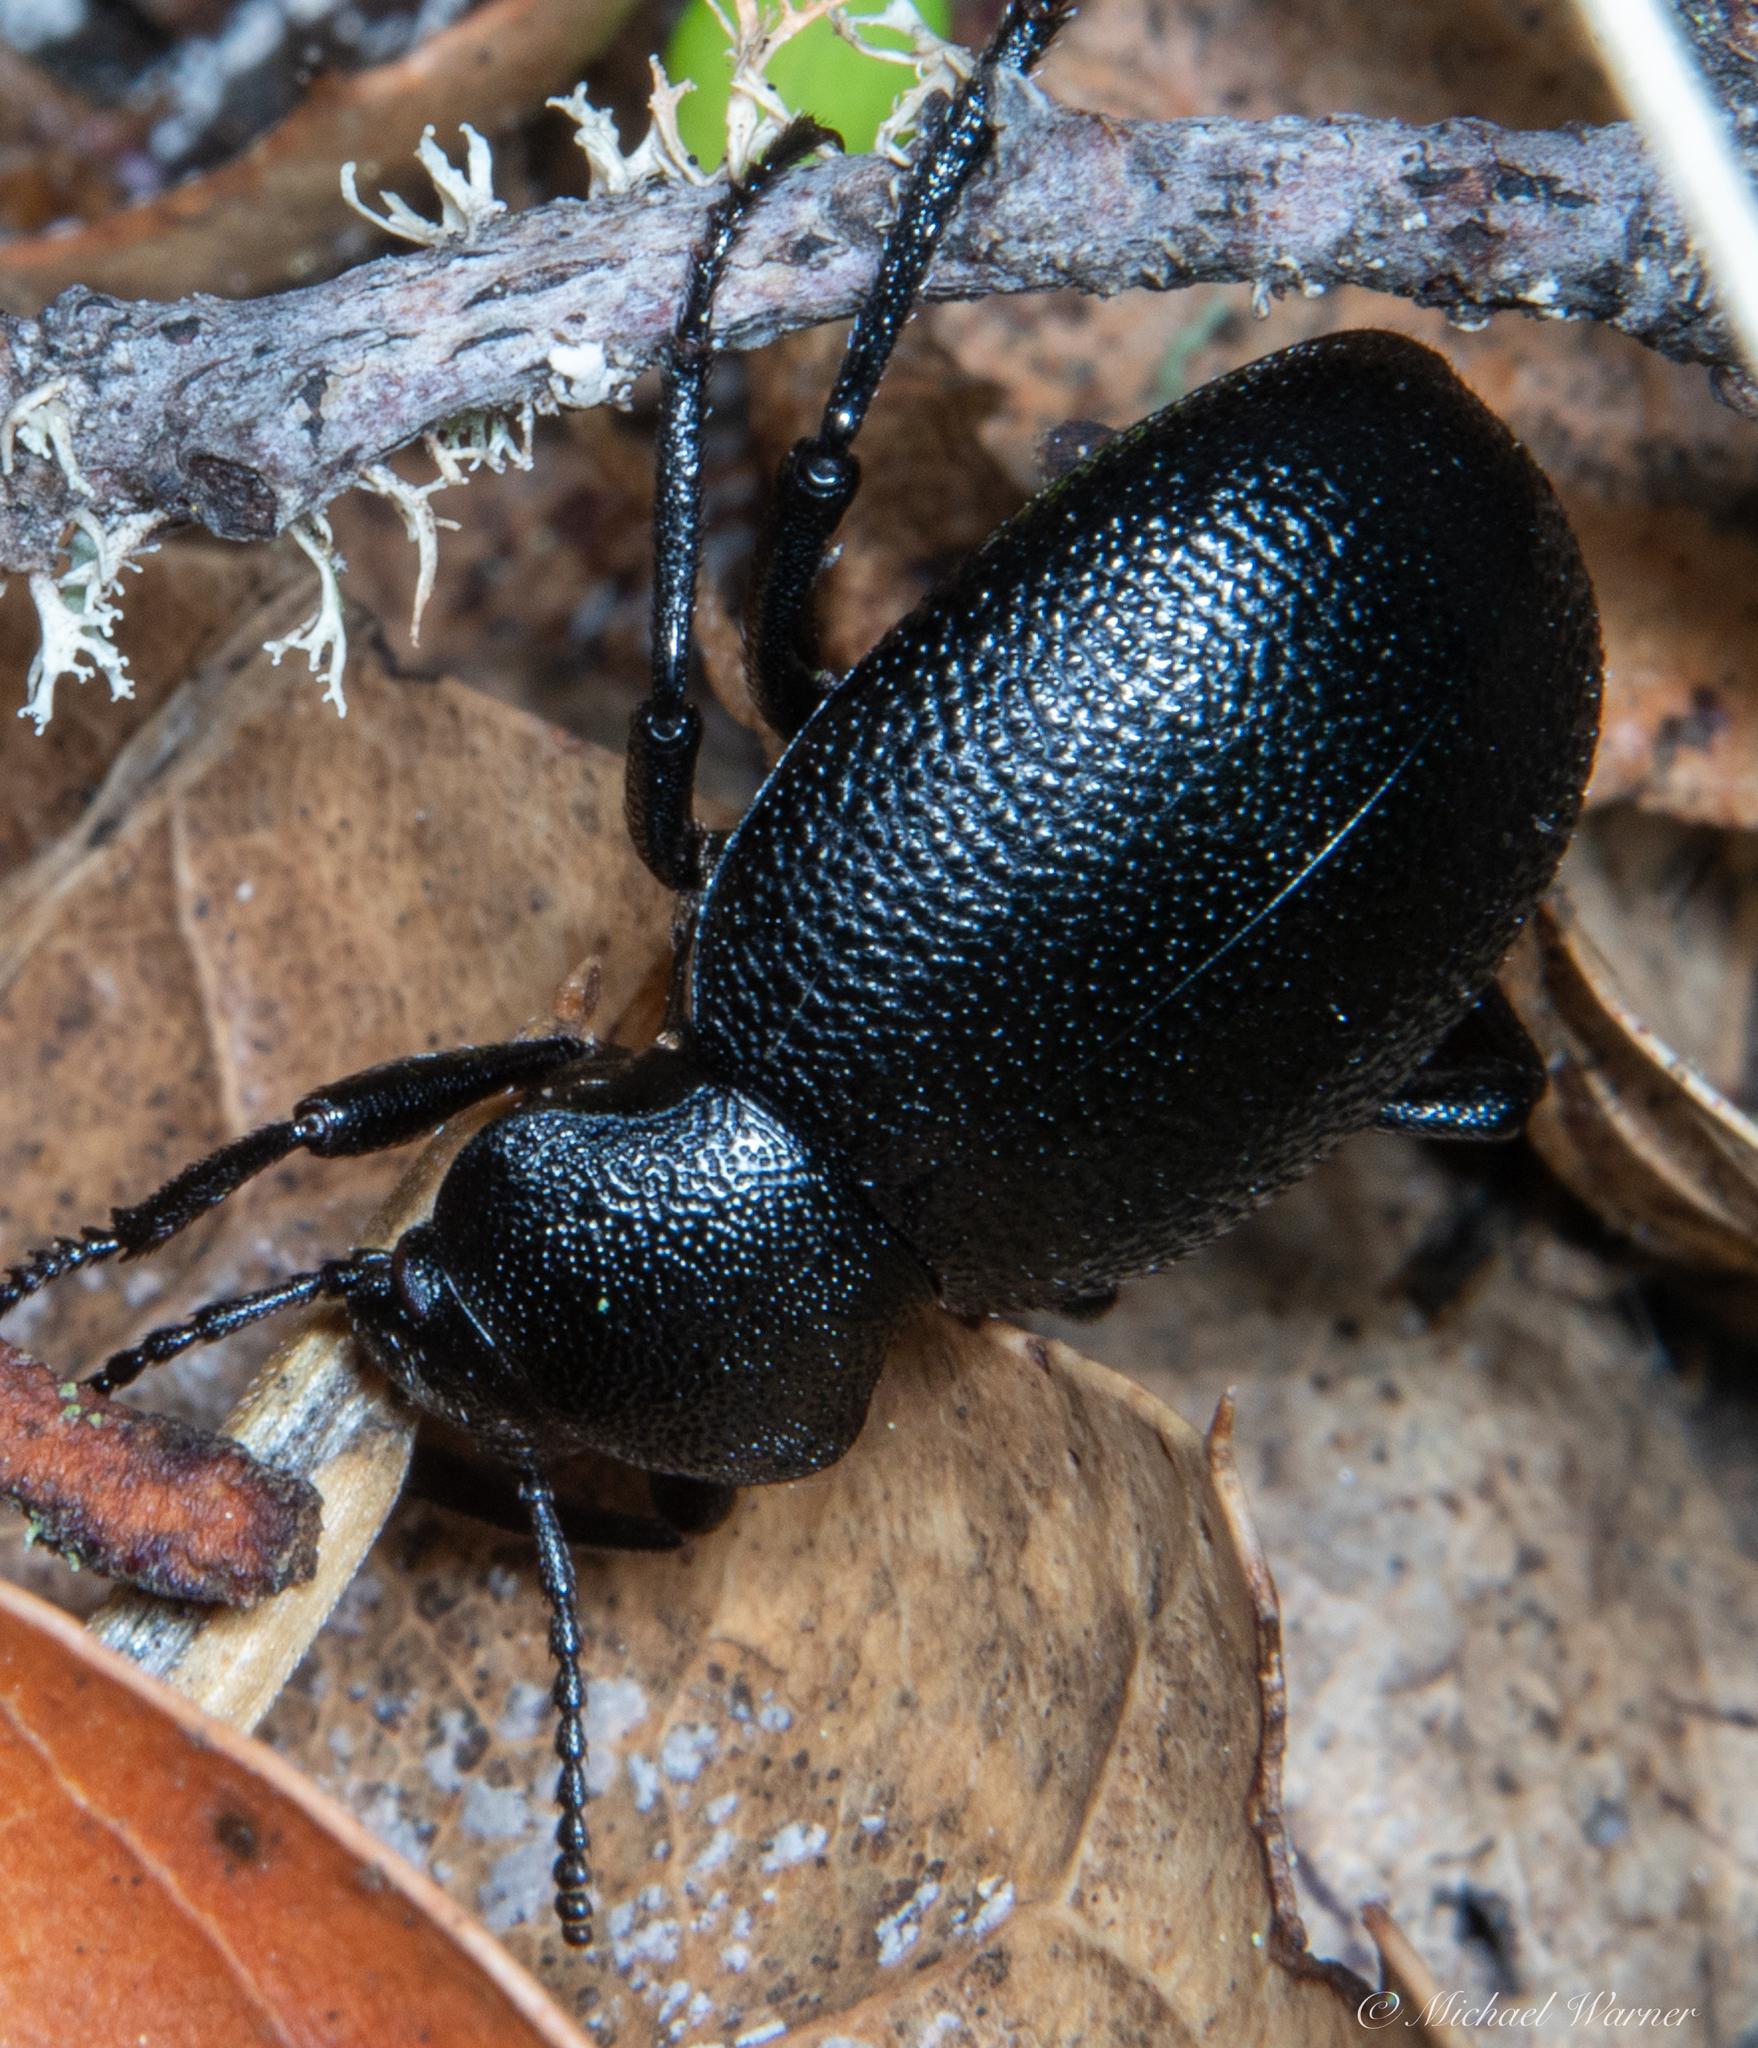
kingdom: Animalia
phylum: Arthropoda
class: Insecta
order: Coleoptera
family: Tenebrionidae
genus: Eleodes
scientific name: Eleodes cordata
